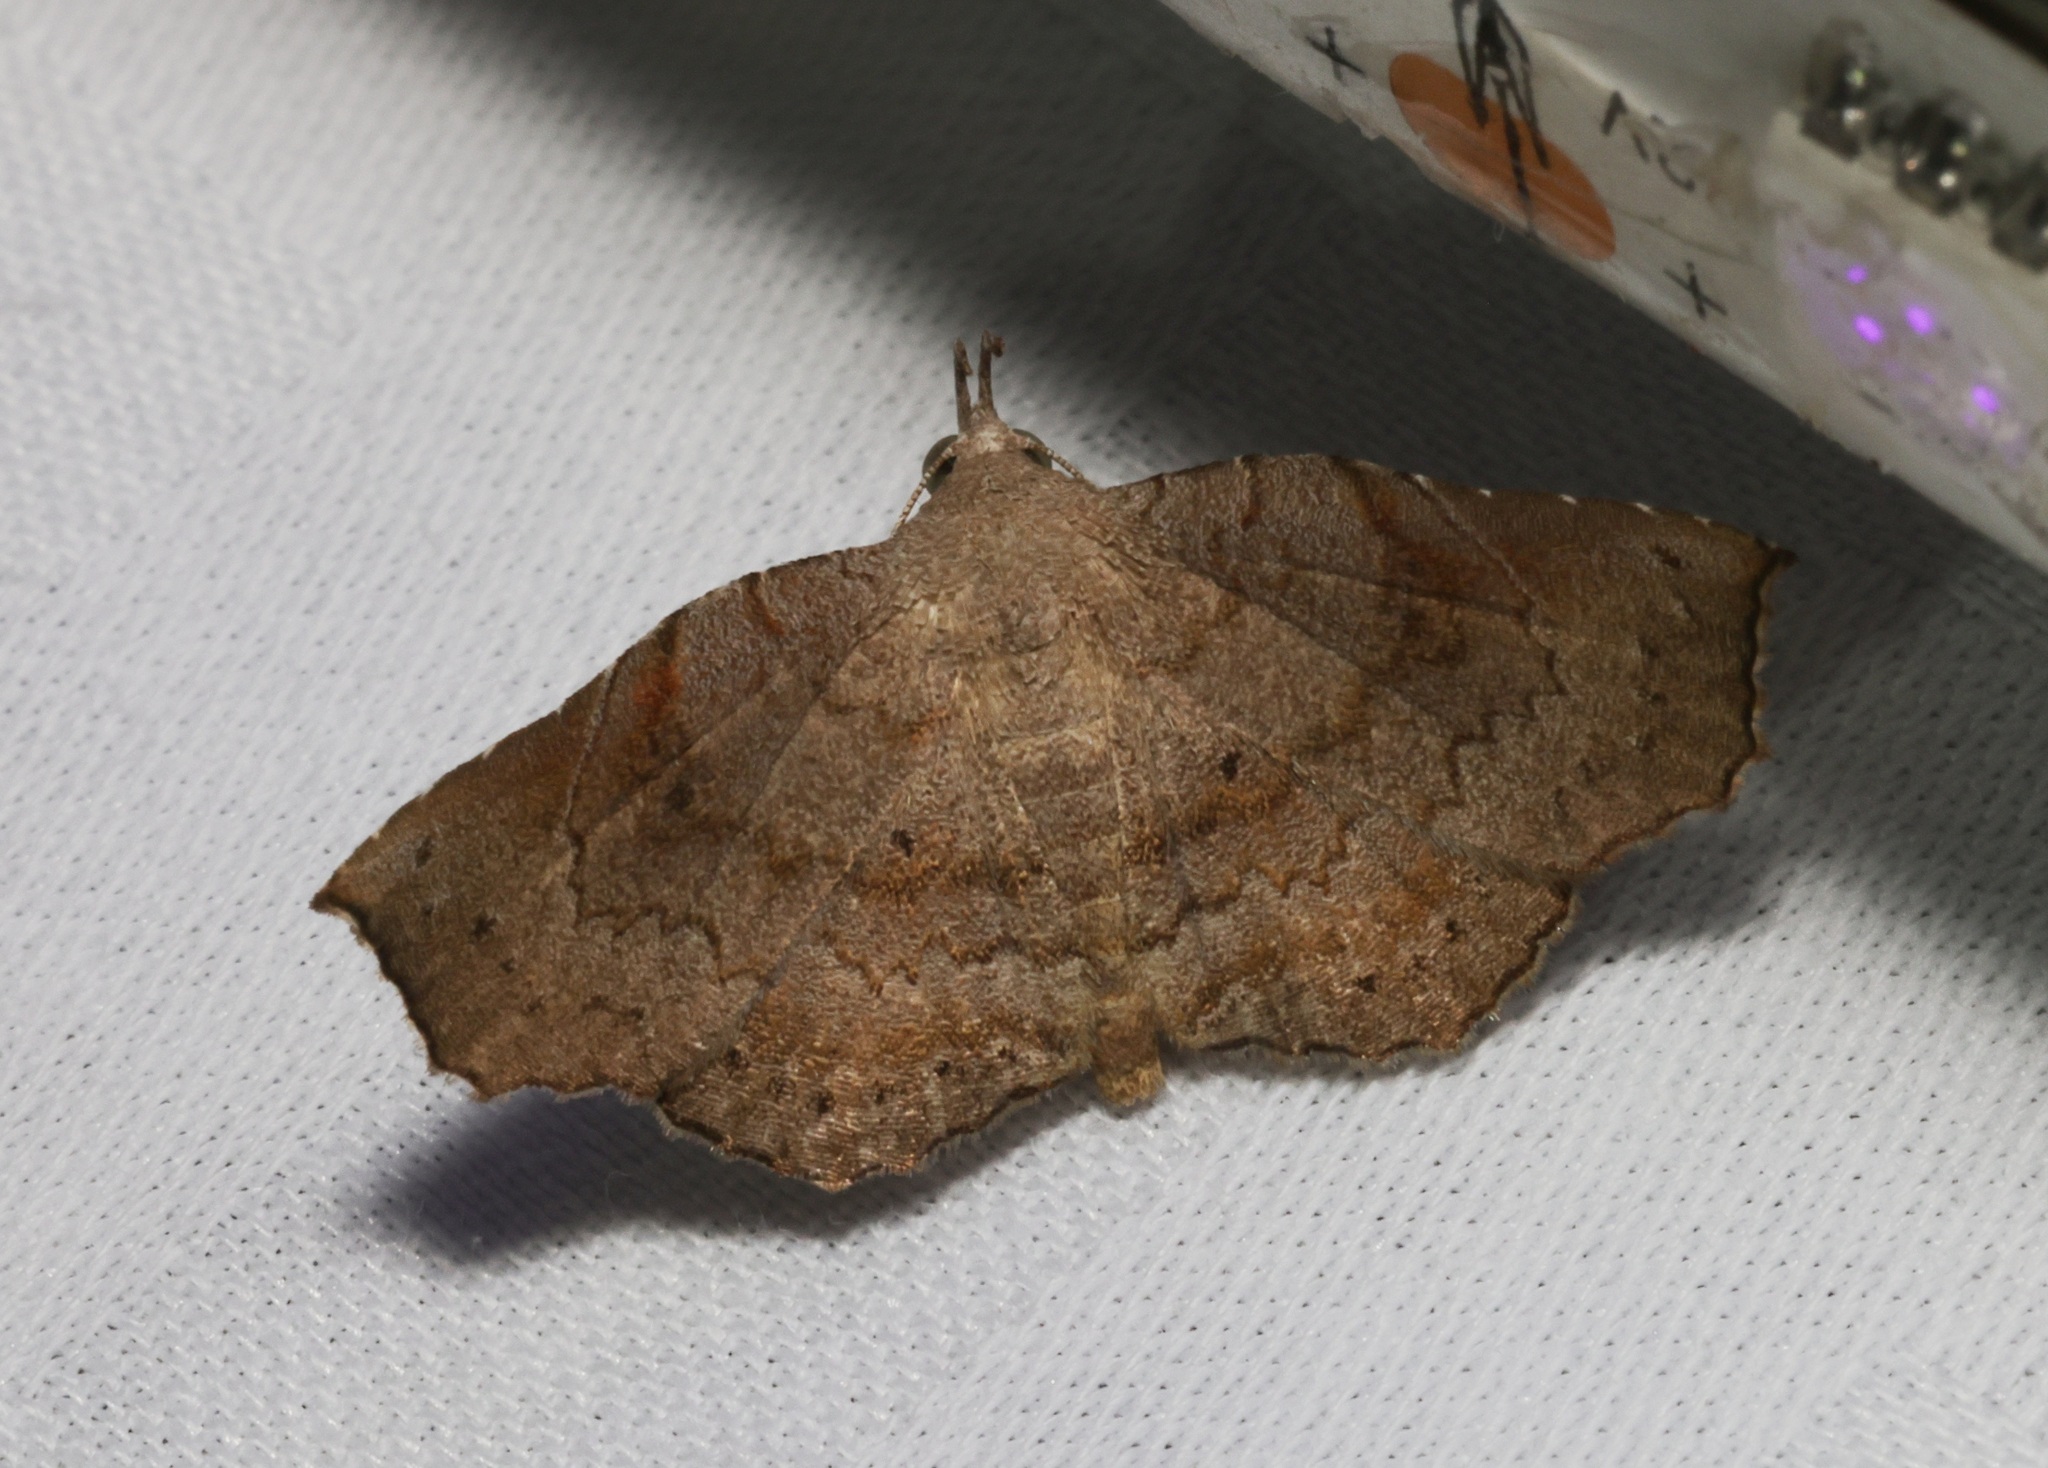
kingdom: Animalia
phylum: Arthropoda
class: Insecta
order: Lepidoptera
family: Erebidae
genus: Egnasia
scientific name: Egnasia seclusalis
